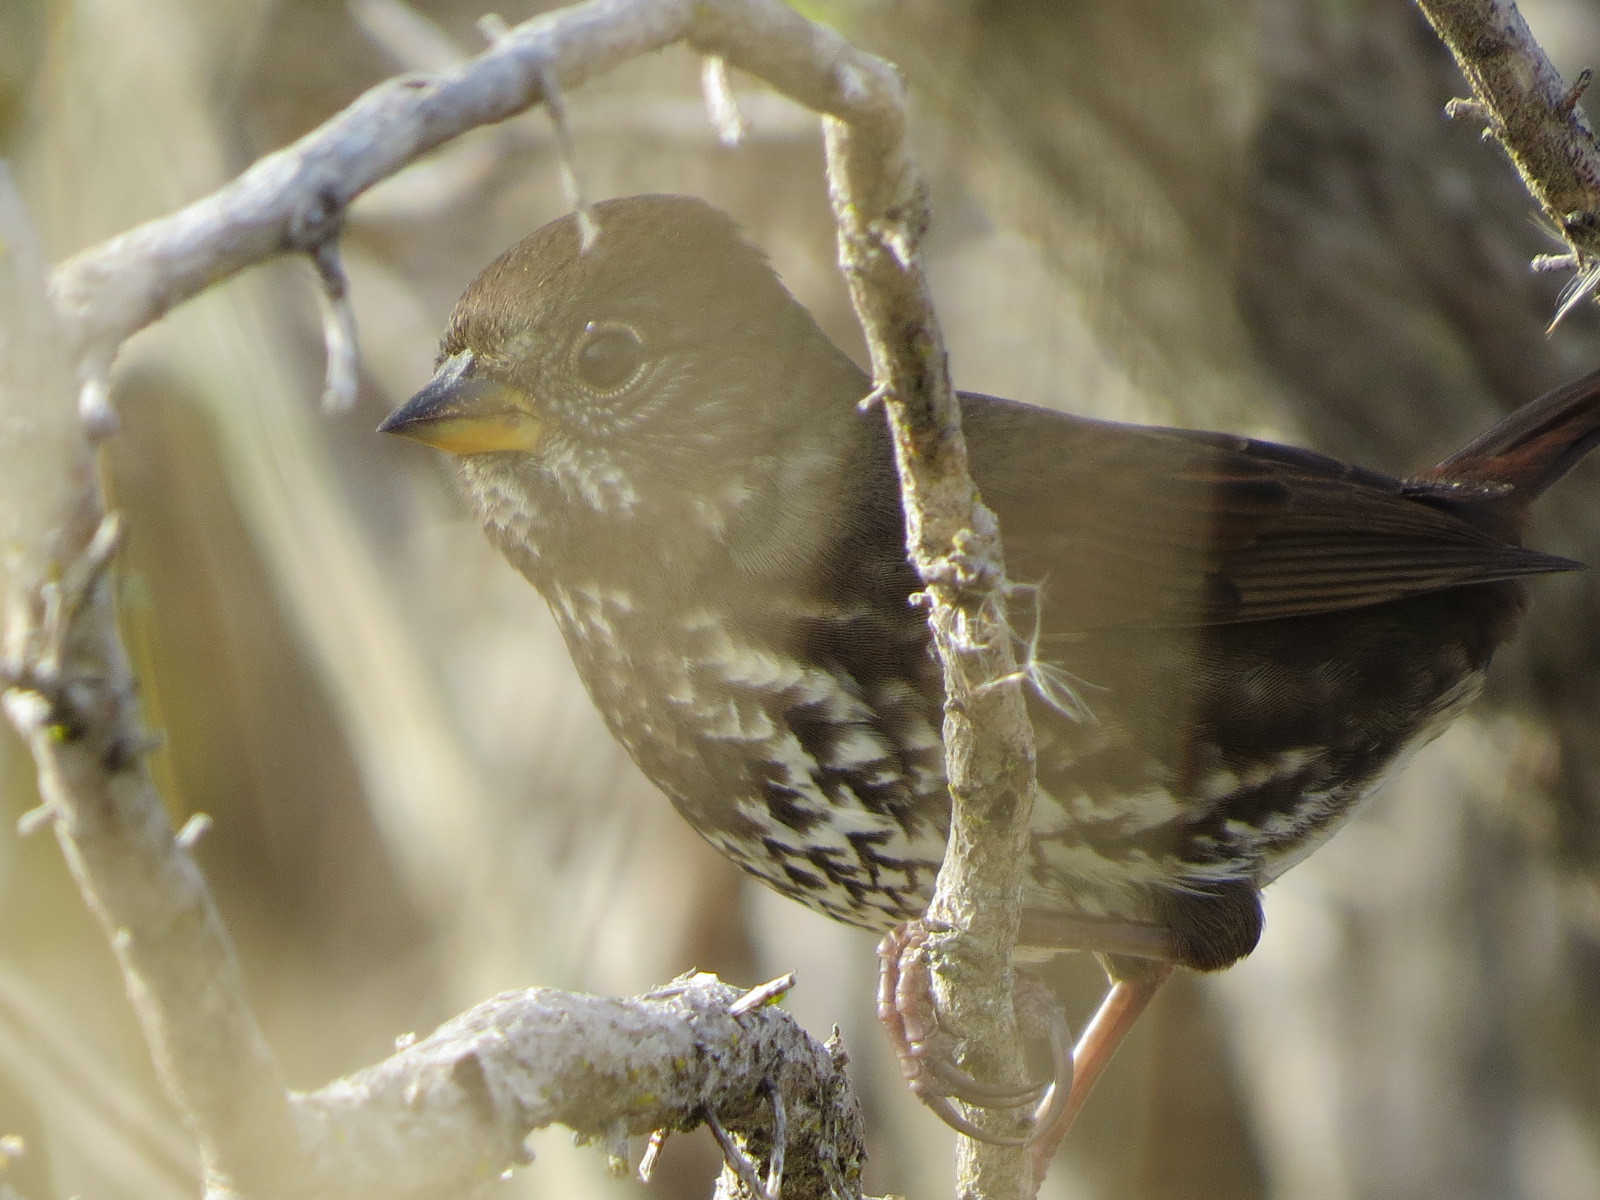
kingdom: Animalia
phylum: Chordata
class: Aves
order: Passeriformes
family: Passerellidae
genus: Passerella
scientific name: Passerella iliaca
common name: Fox sparrow
